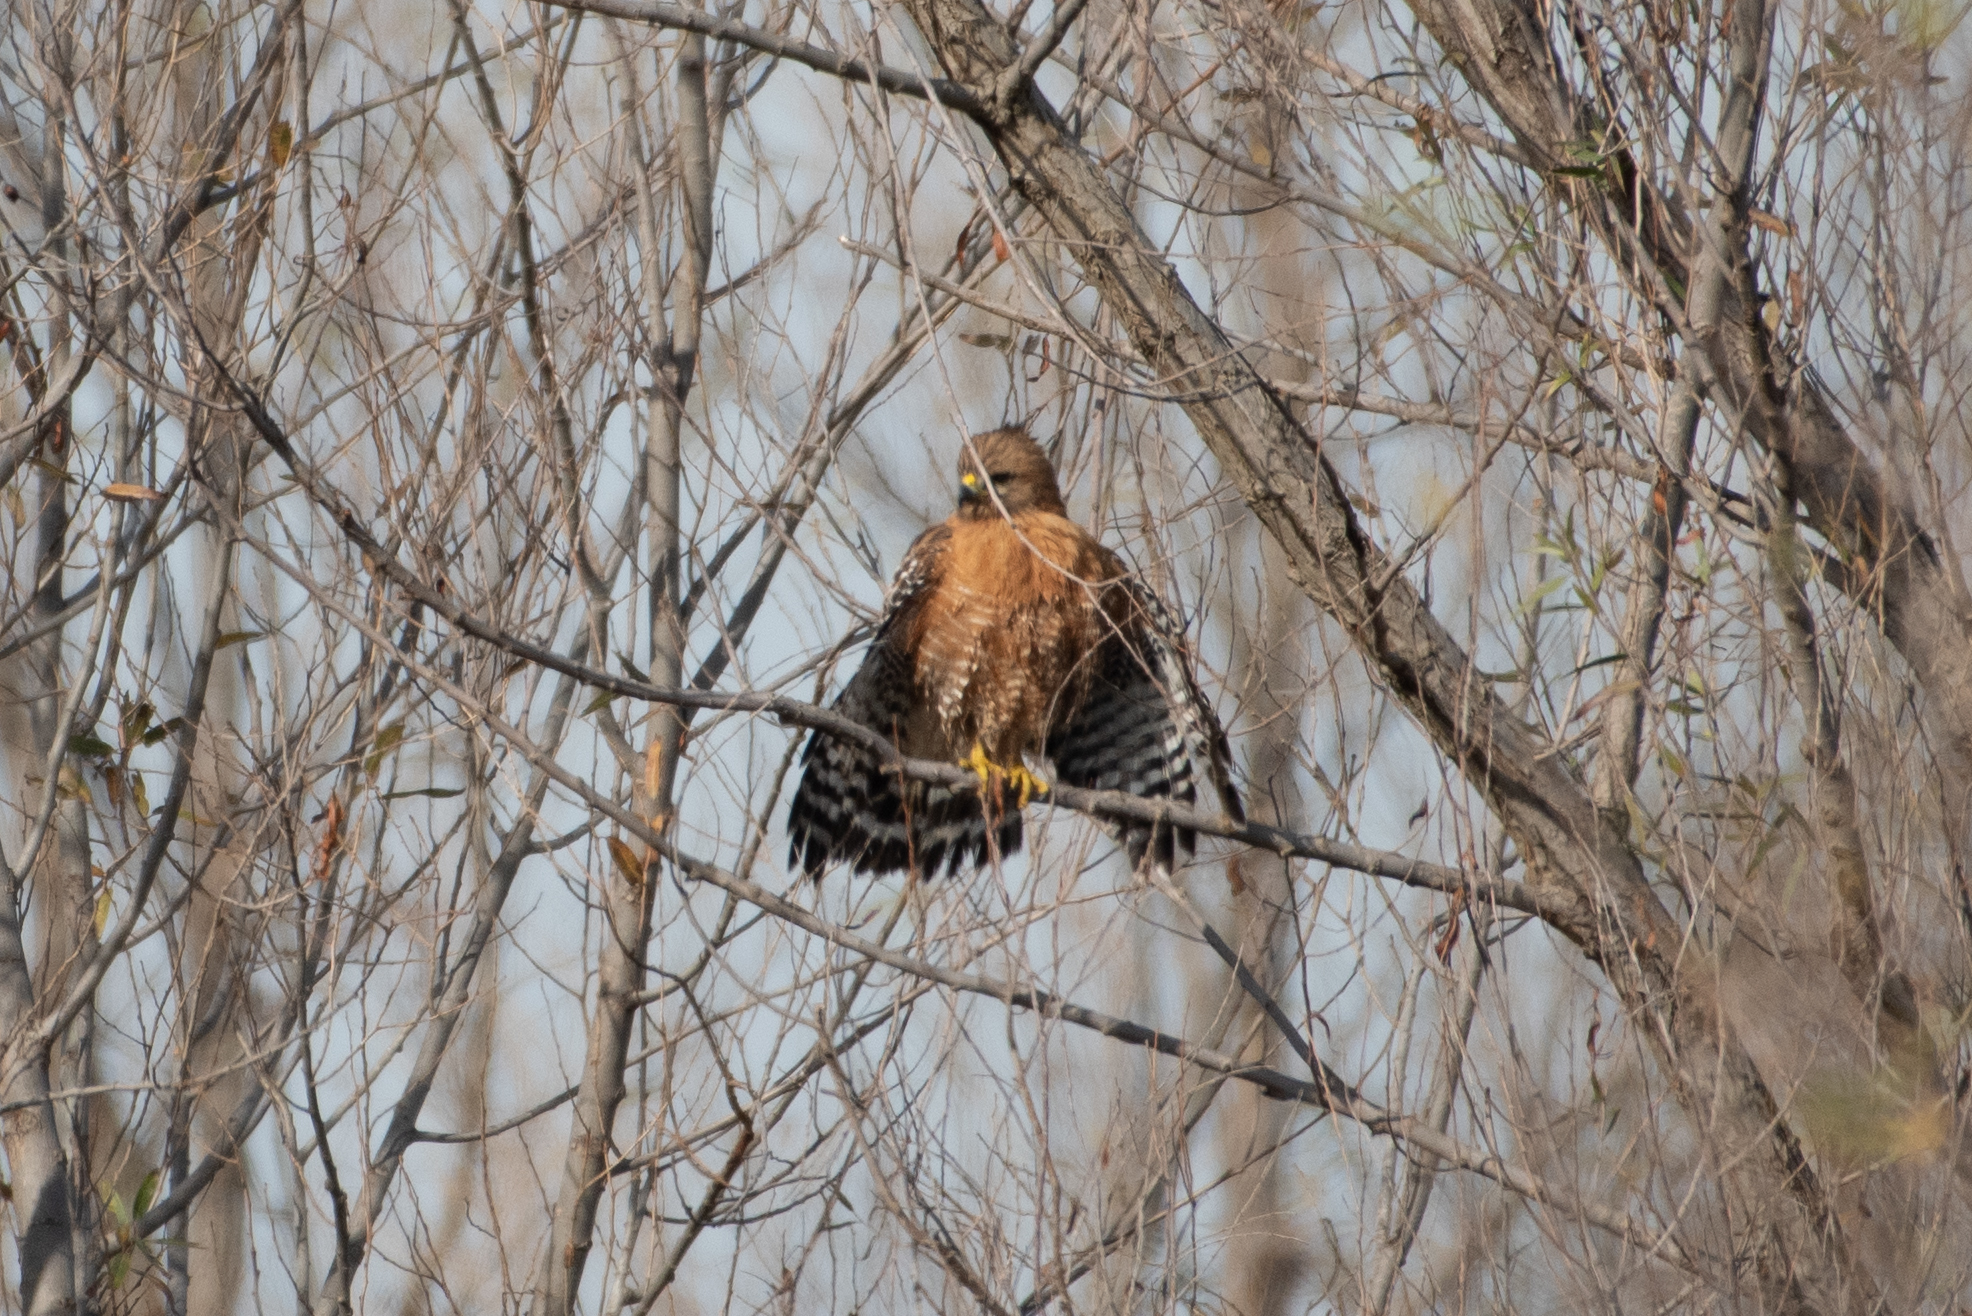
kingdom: Animalia
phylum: Chordata
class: Aves
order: Accipitriformes
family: Accipitridae
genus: Buteo
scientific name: Buteo lineatus
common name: Red-shouldered hawk
